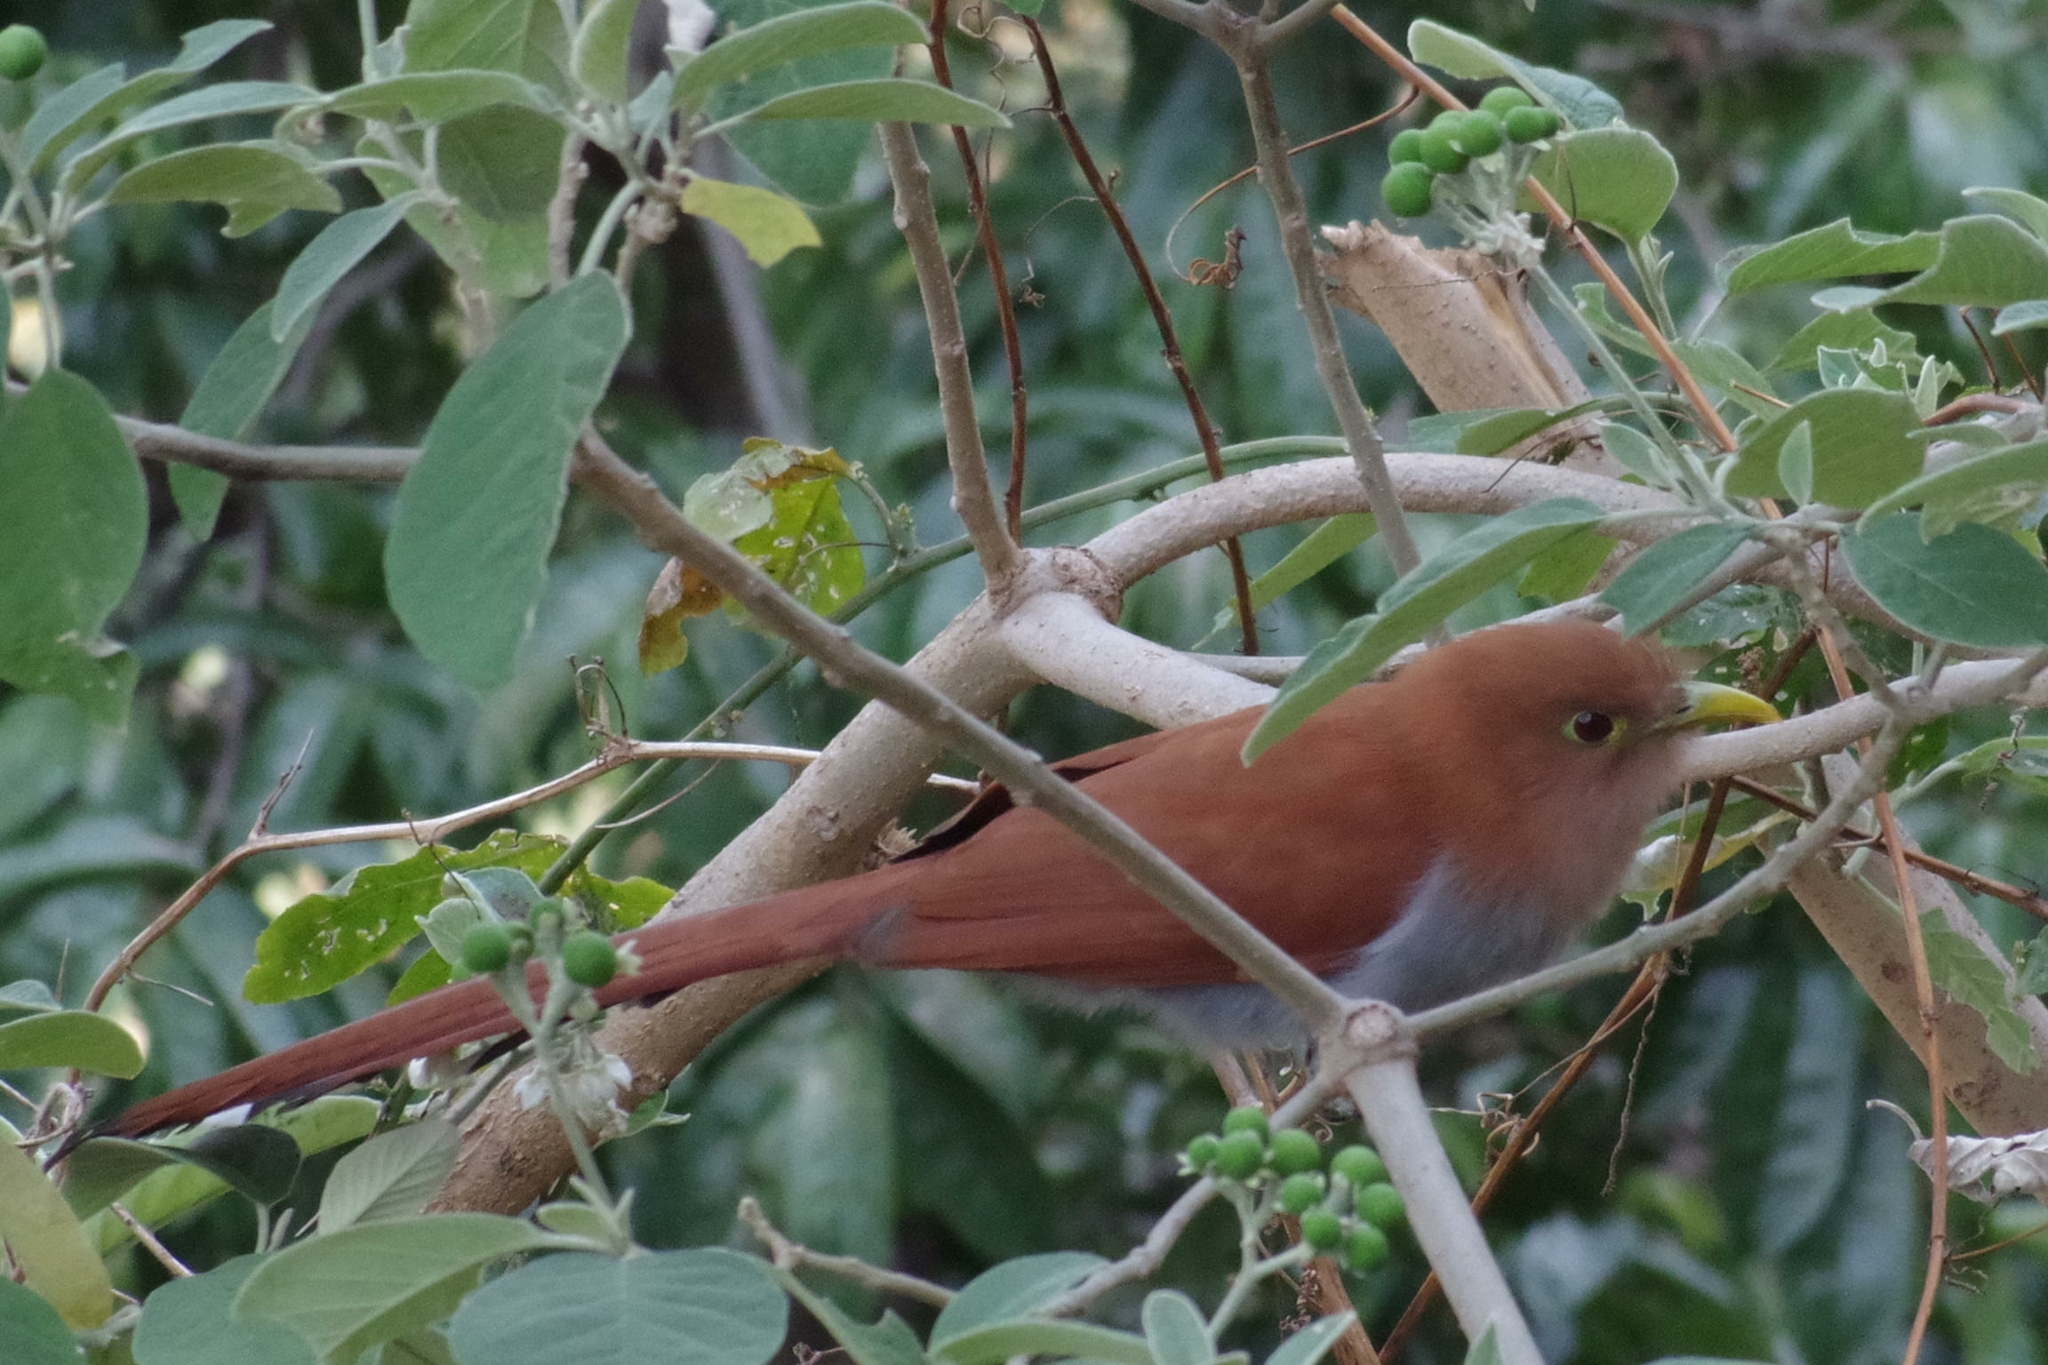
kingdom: Animalia
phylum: Chordata
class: Aves
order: Cuculiformes
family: Cuculidae
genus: Piaya
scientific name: Piaya cayana
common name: Squirrel cuckoo
